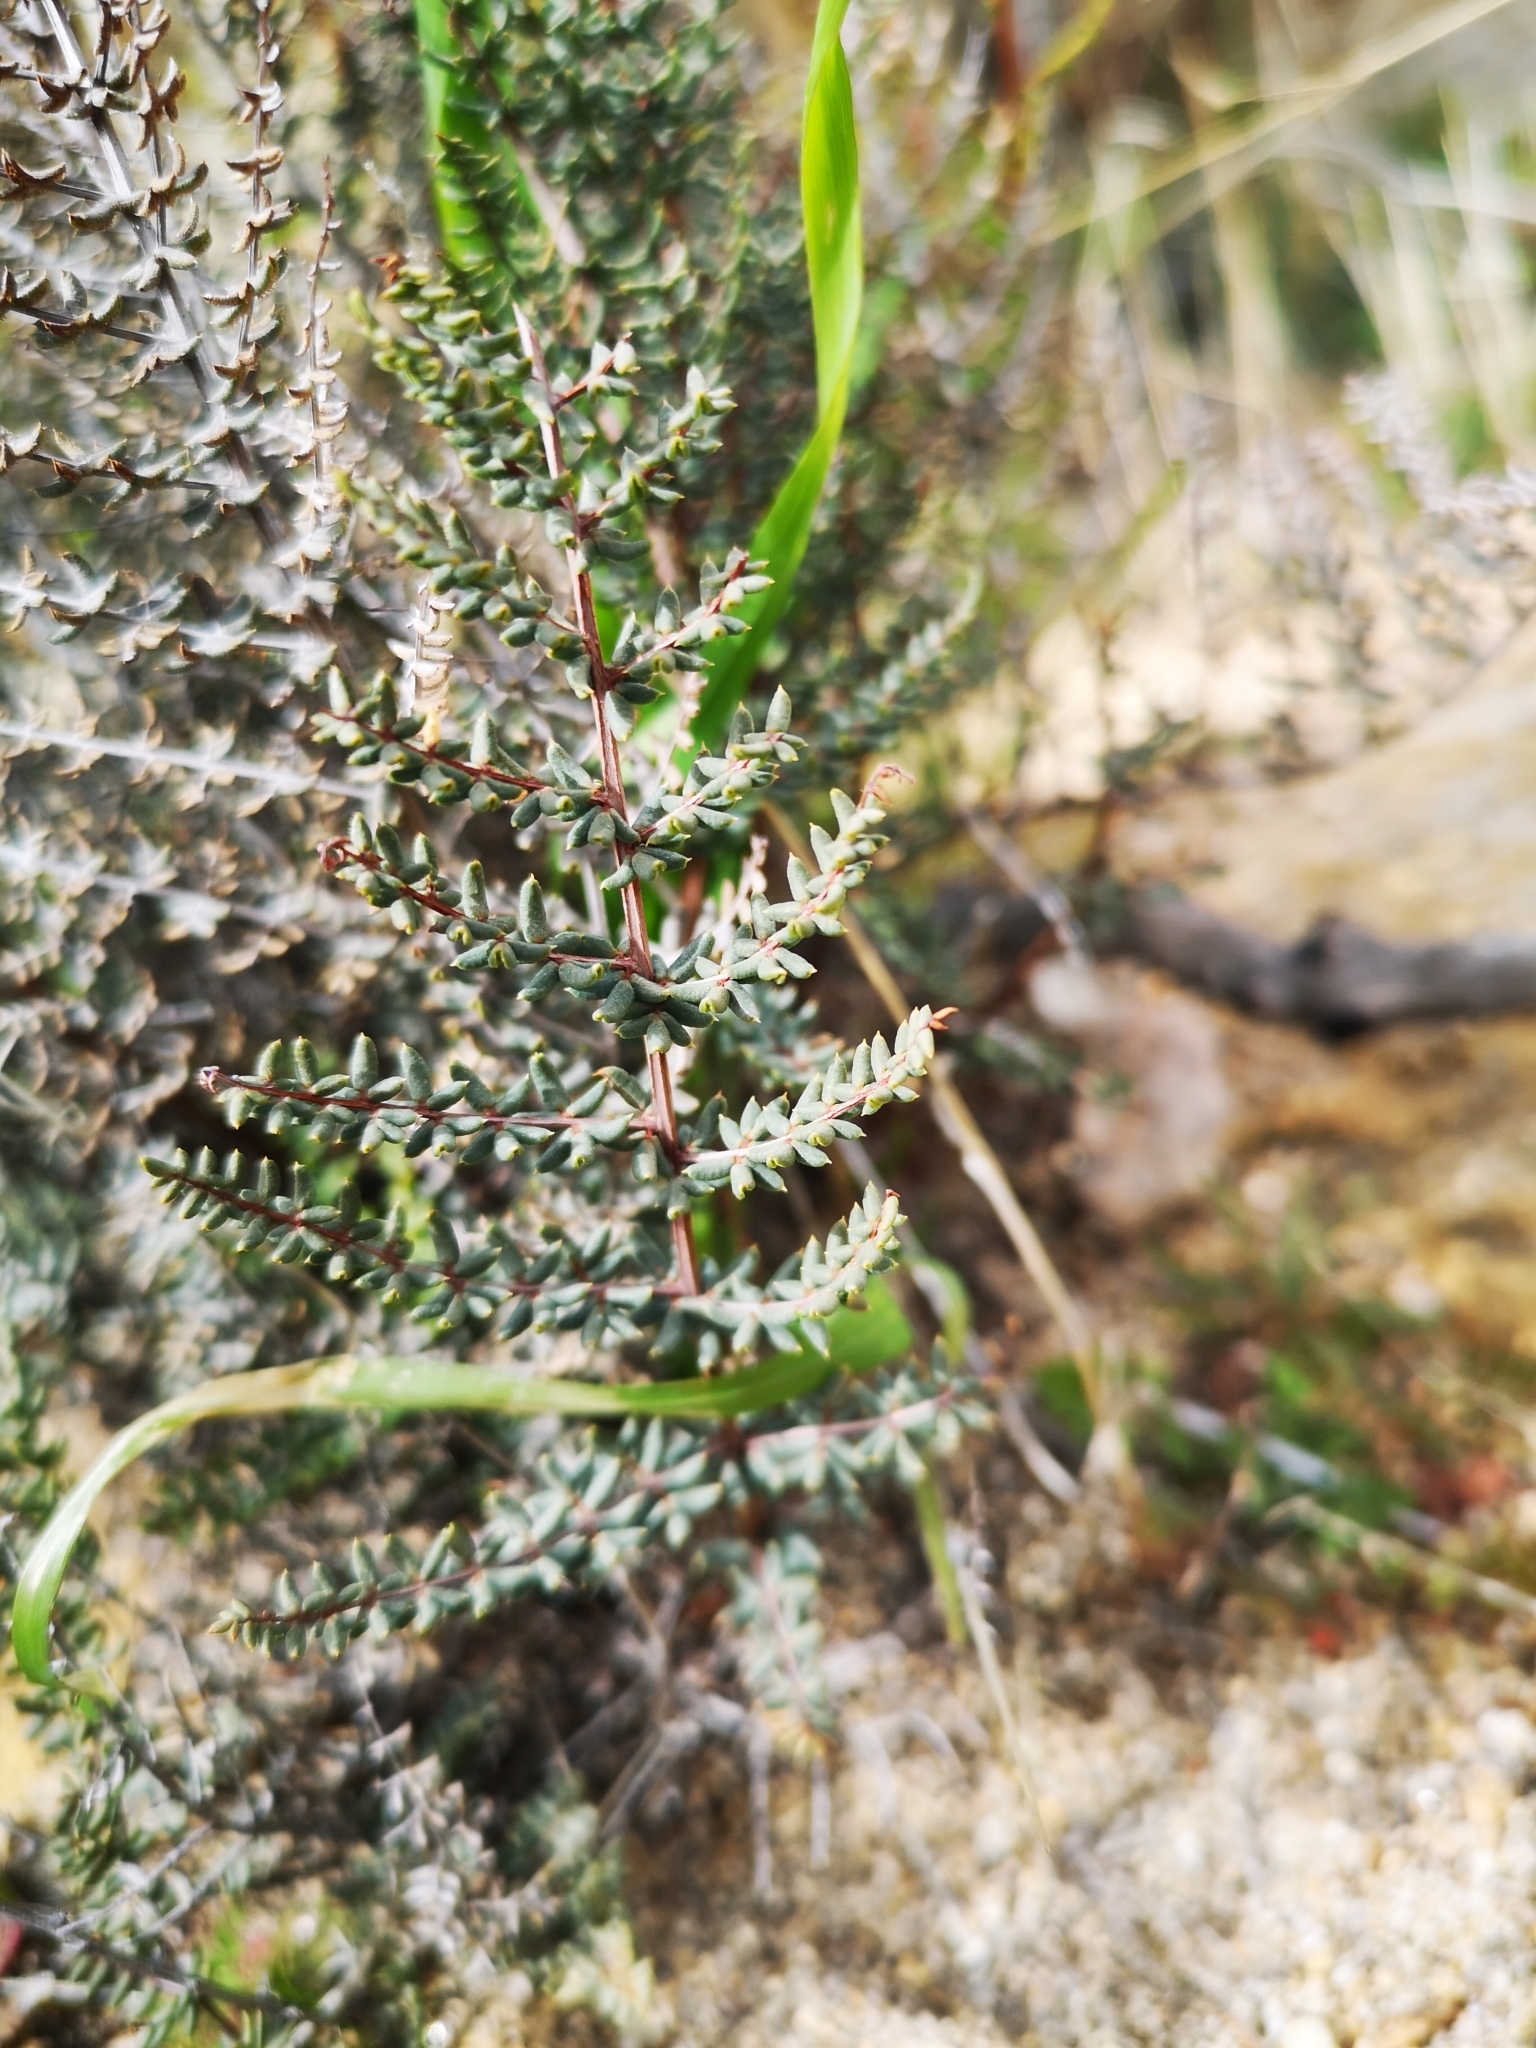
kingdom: Plantae
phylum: Tracheophyta
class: Polypodiopsida
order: Polypodiales
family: Pteridaceae
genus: Pellaea
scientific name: Pellaea mucronata
